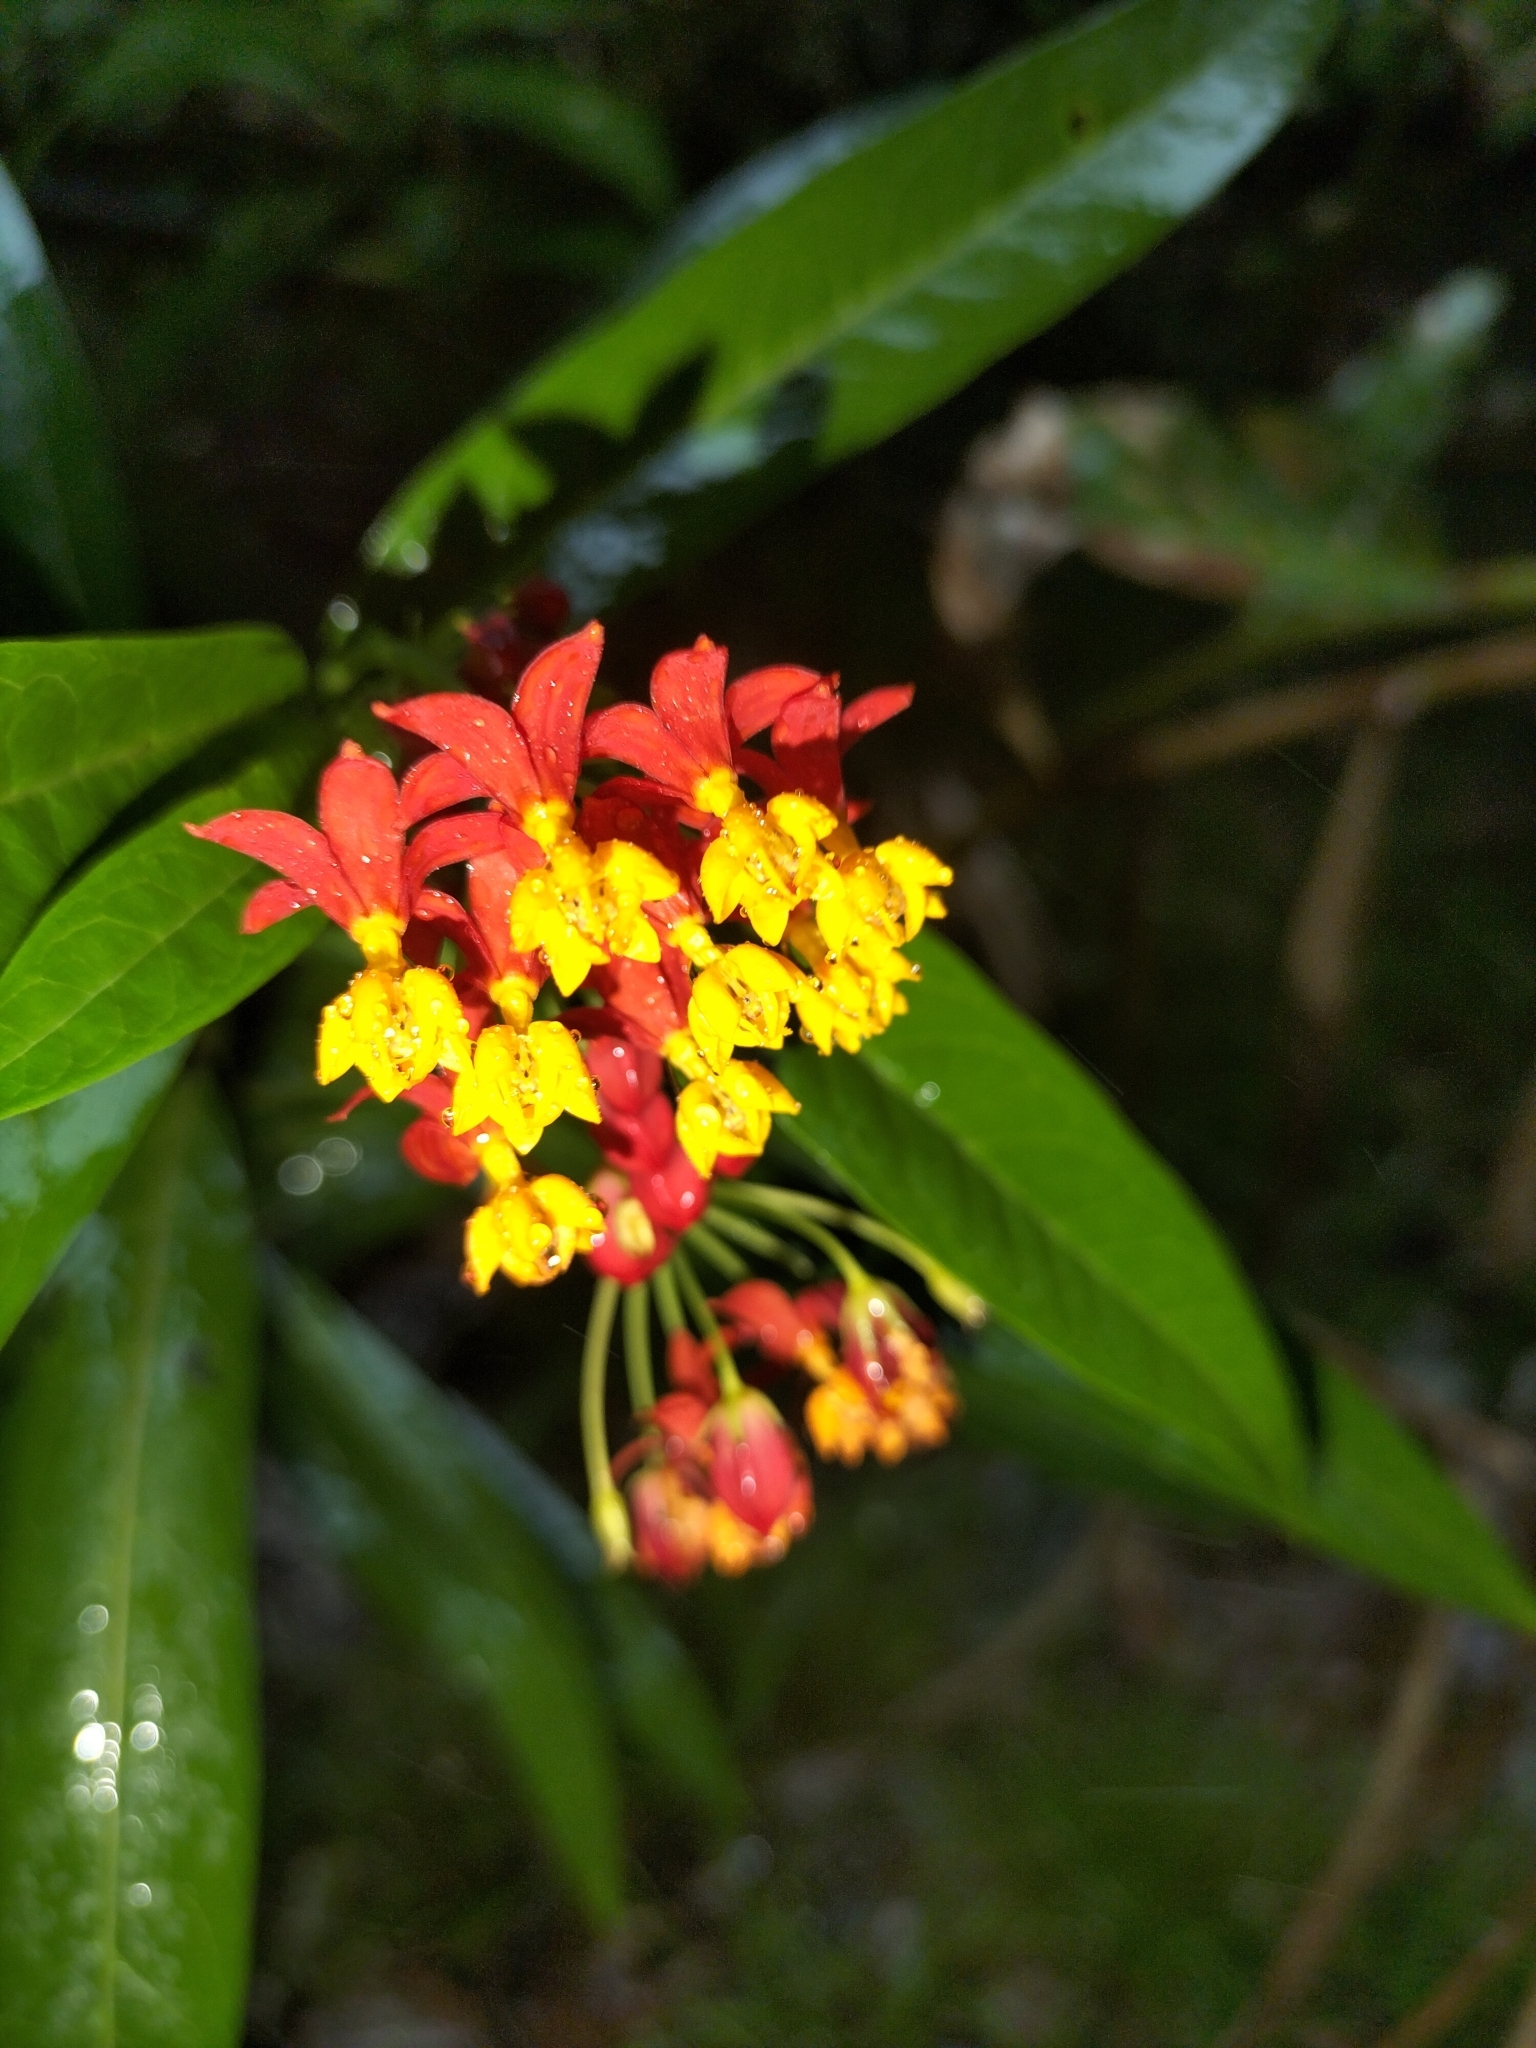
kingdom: Plantae
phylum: Tracheophyta
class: Magnoliopsida
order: Gentianales
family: Apocynaceae
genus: Asclepias
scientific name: Asclepias curassavica
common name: Bloodflower
